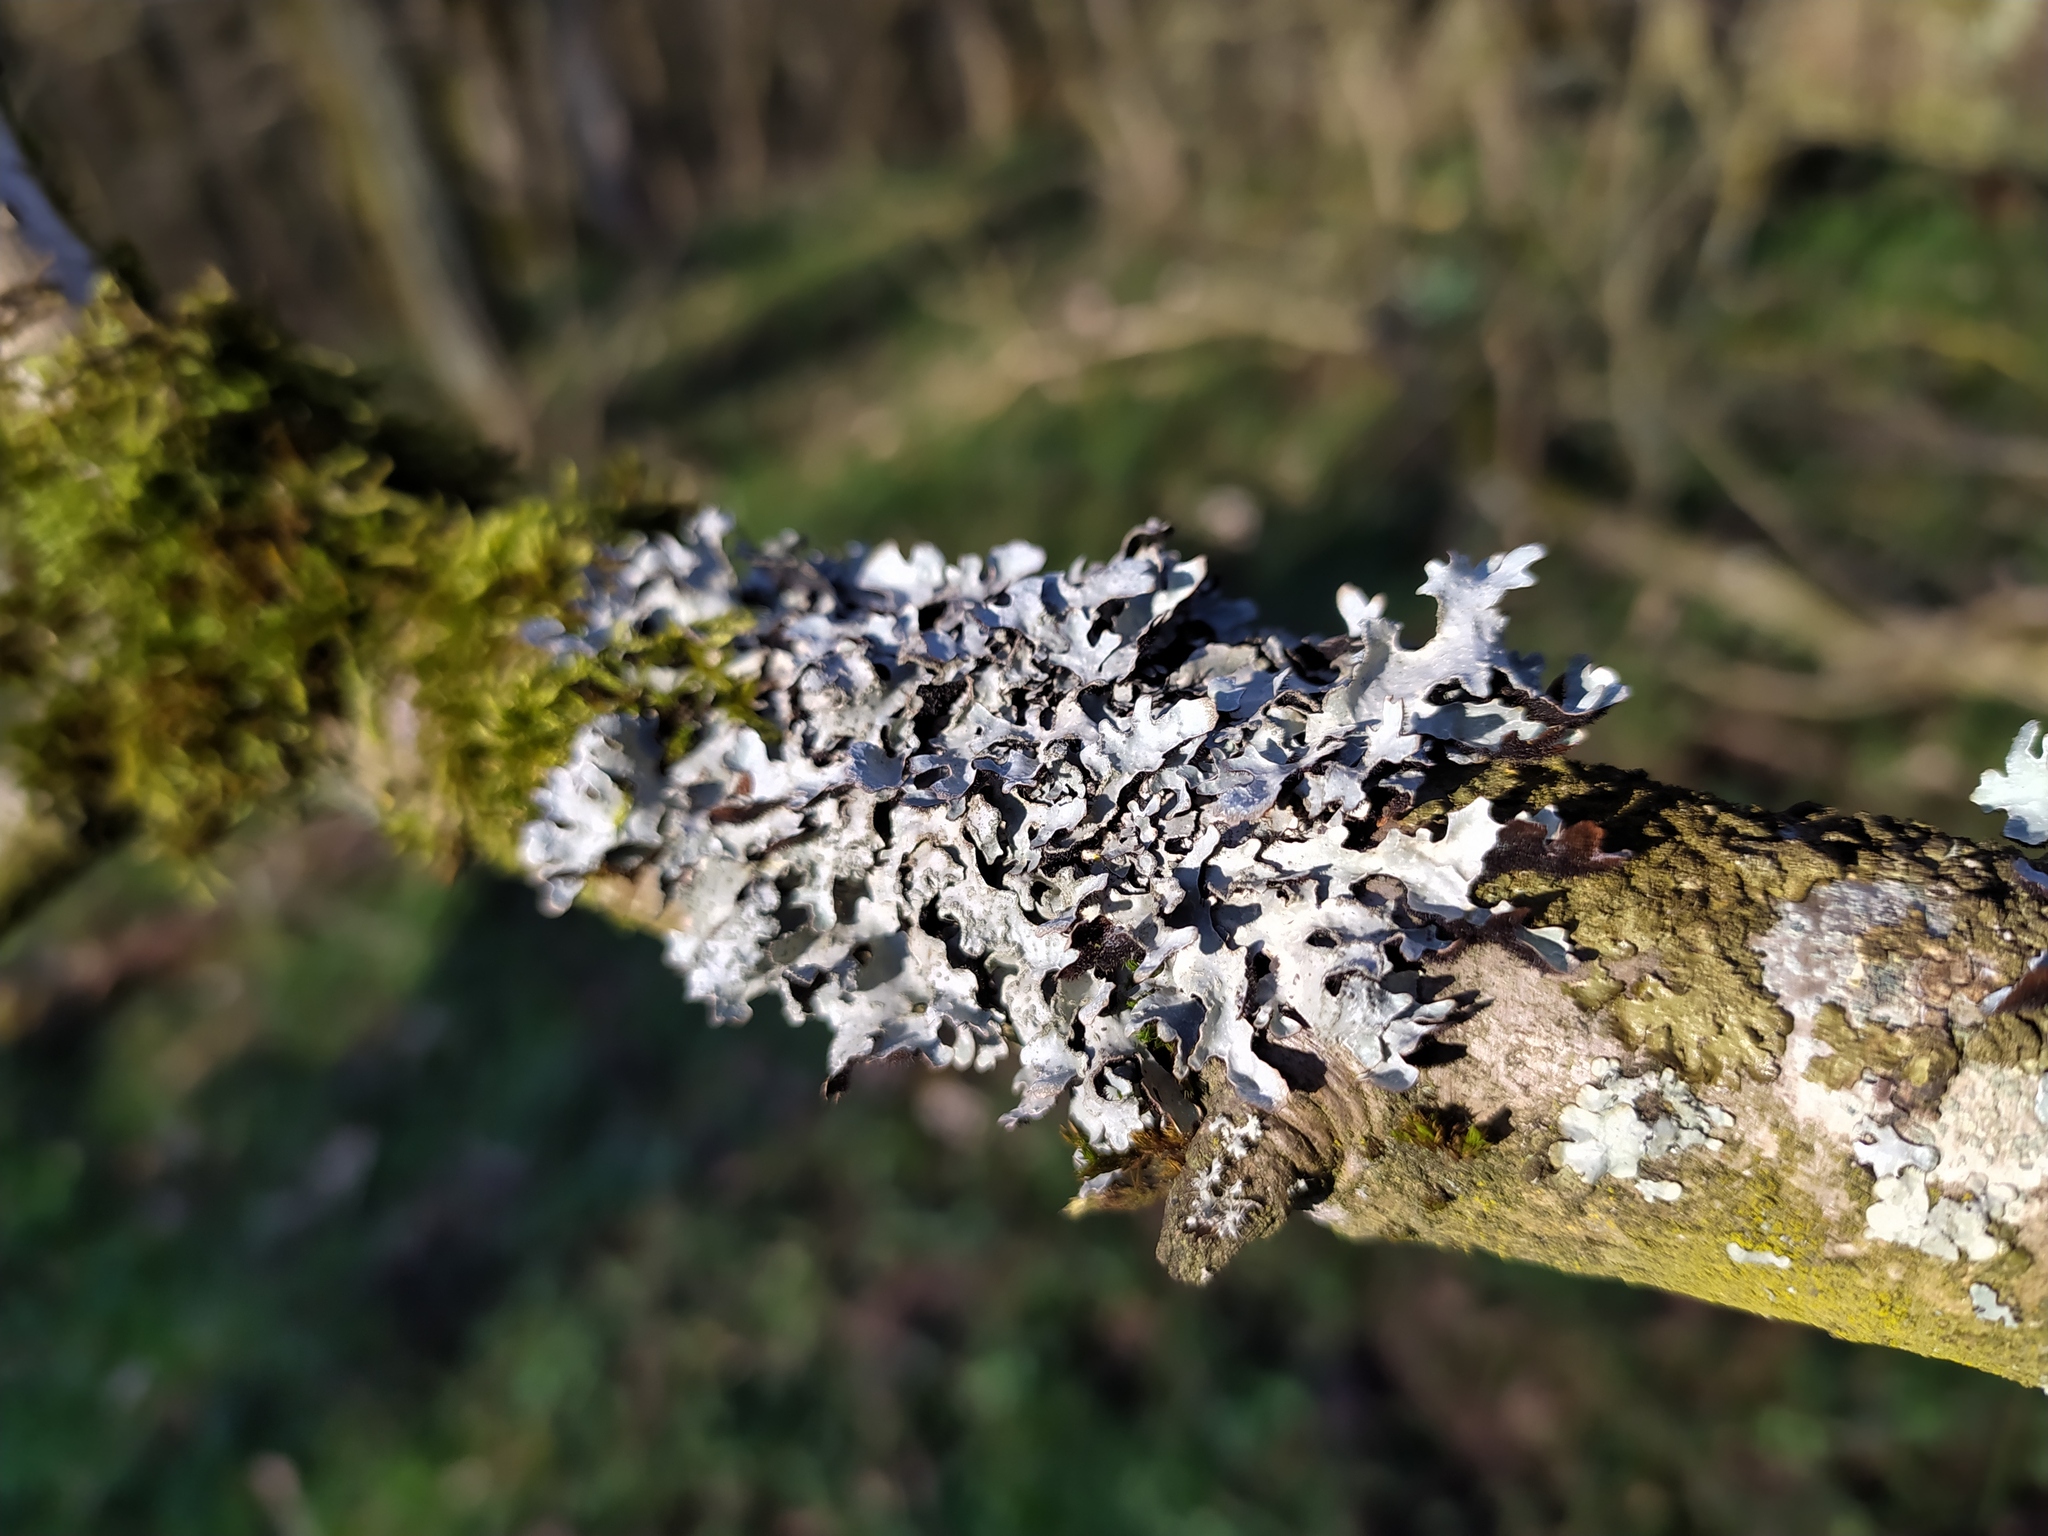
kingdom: Fungi
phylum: Ascomycota
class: Lecanoromycetes
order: Lecanorales
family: Parmeliaceae
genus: Parmelia
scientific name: Parmelia sulcata
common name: Netted shield lichen
